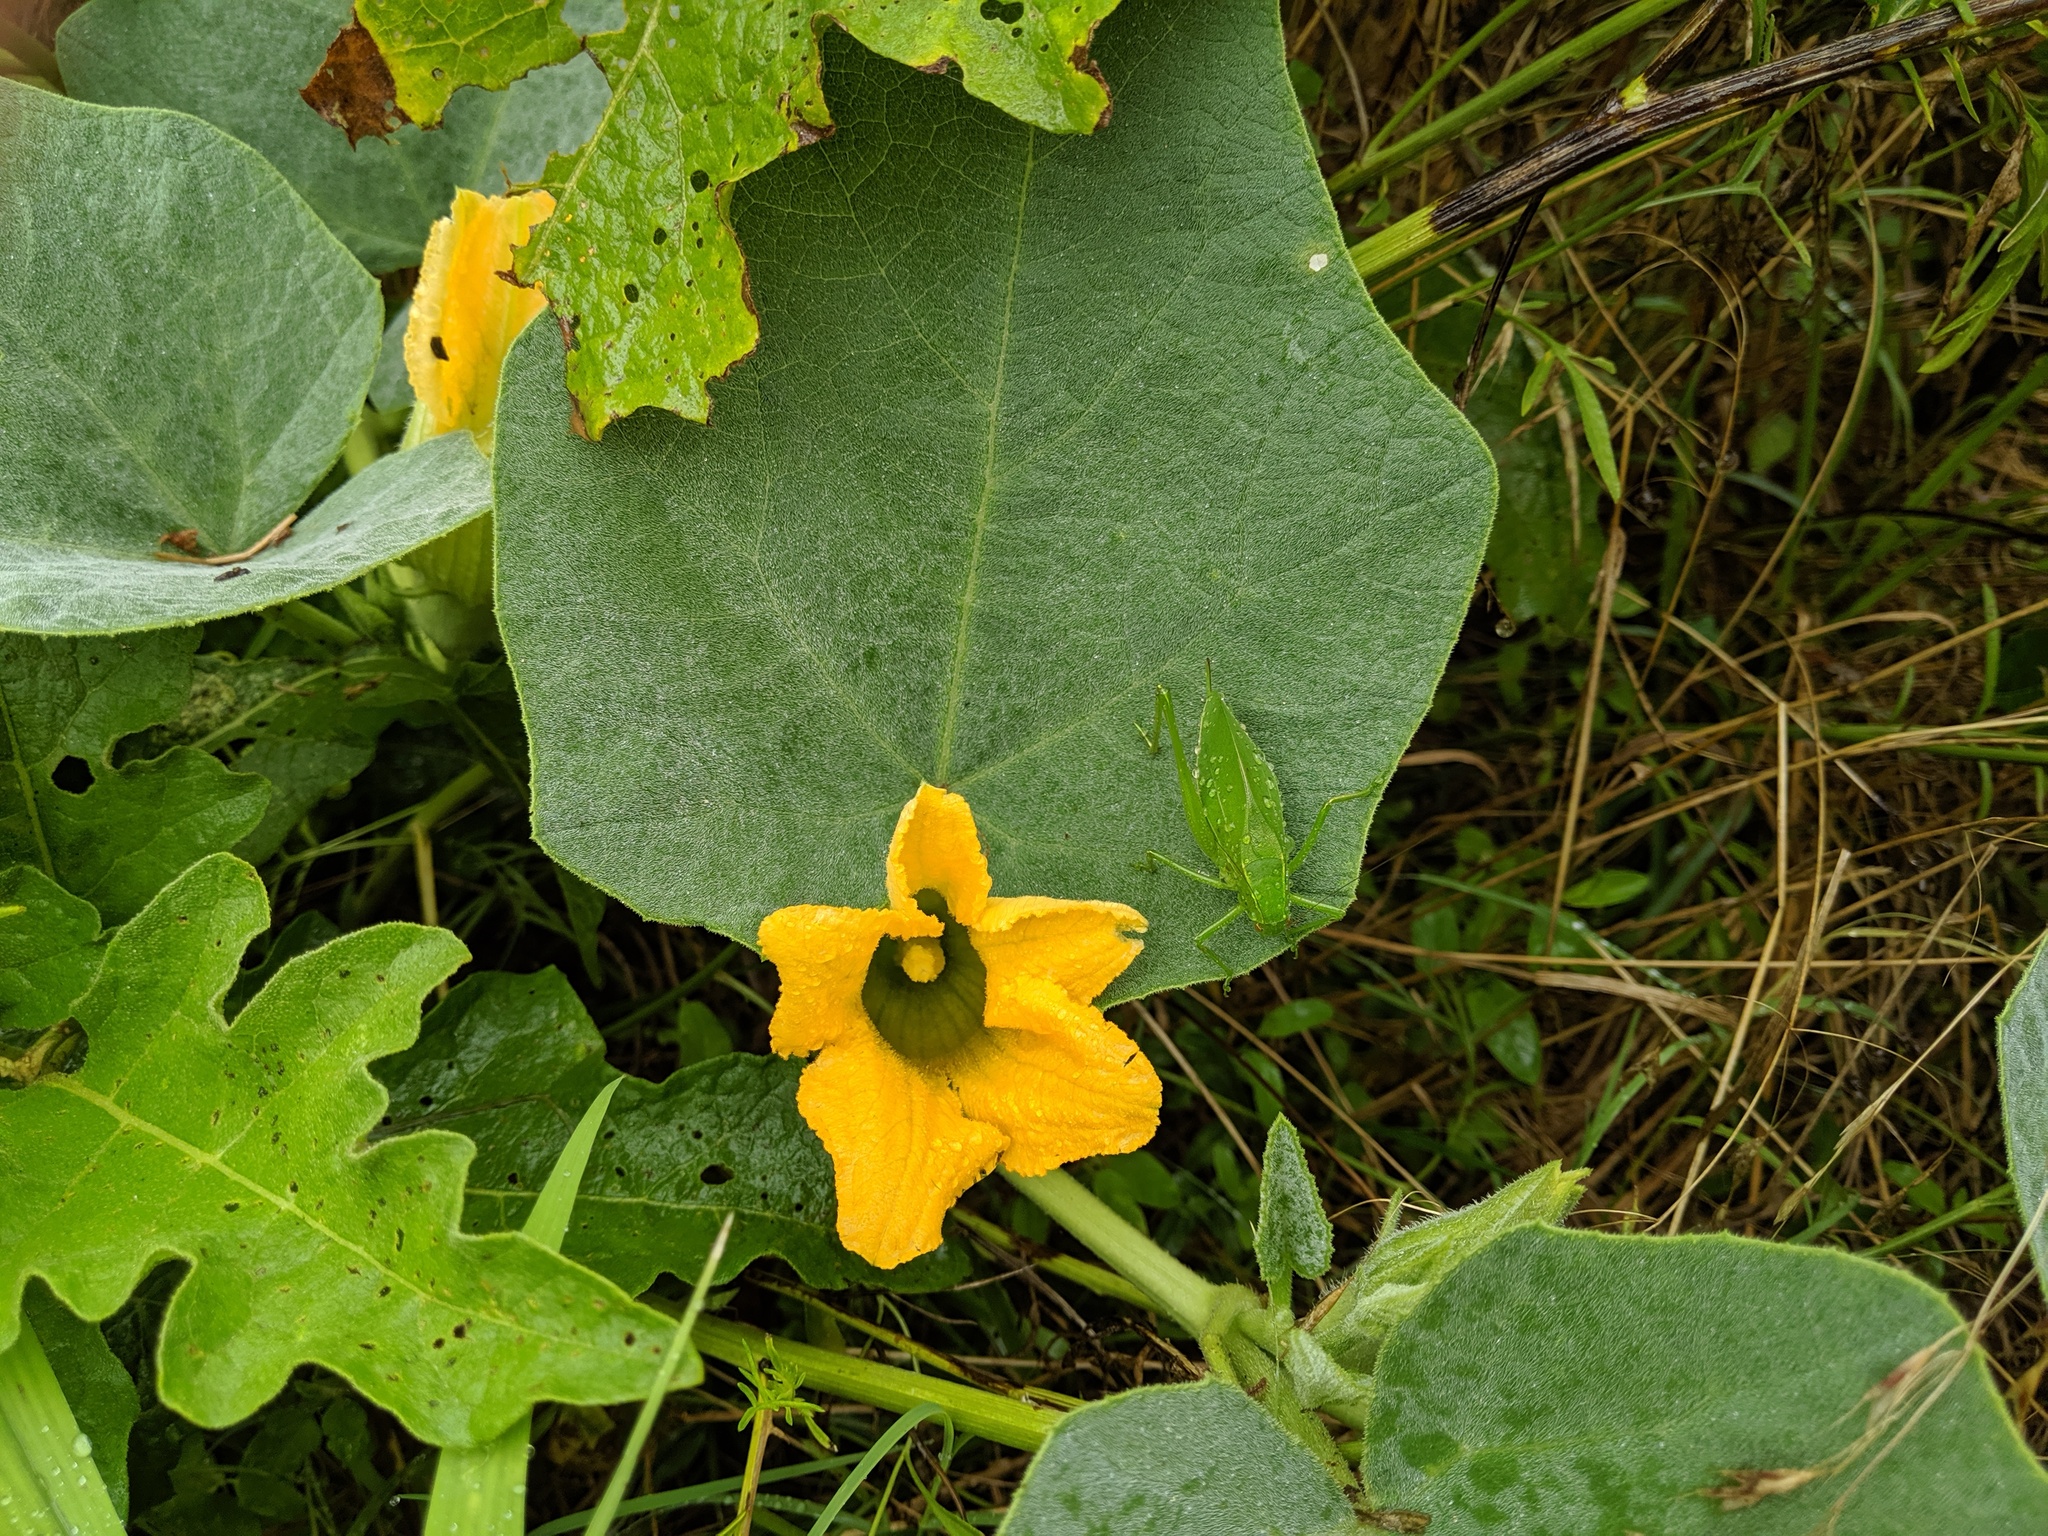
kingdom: Plantae
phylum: Tracheophyta
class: Magnoliopsida
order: Cucurbitales
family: Cucurbitaceae
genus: Cucurbita
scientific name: Cucurbita foetidissima
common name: Buffalo gourd
